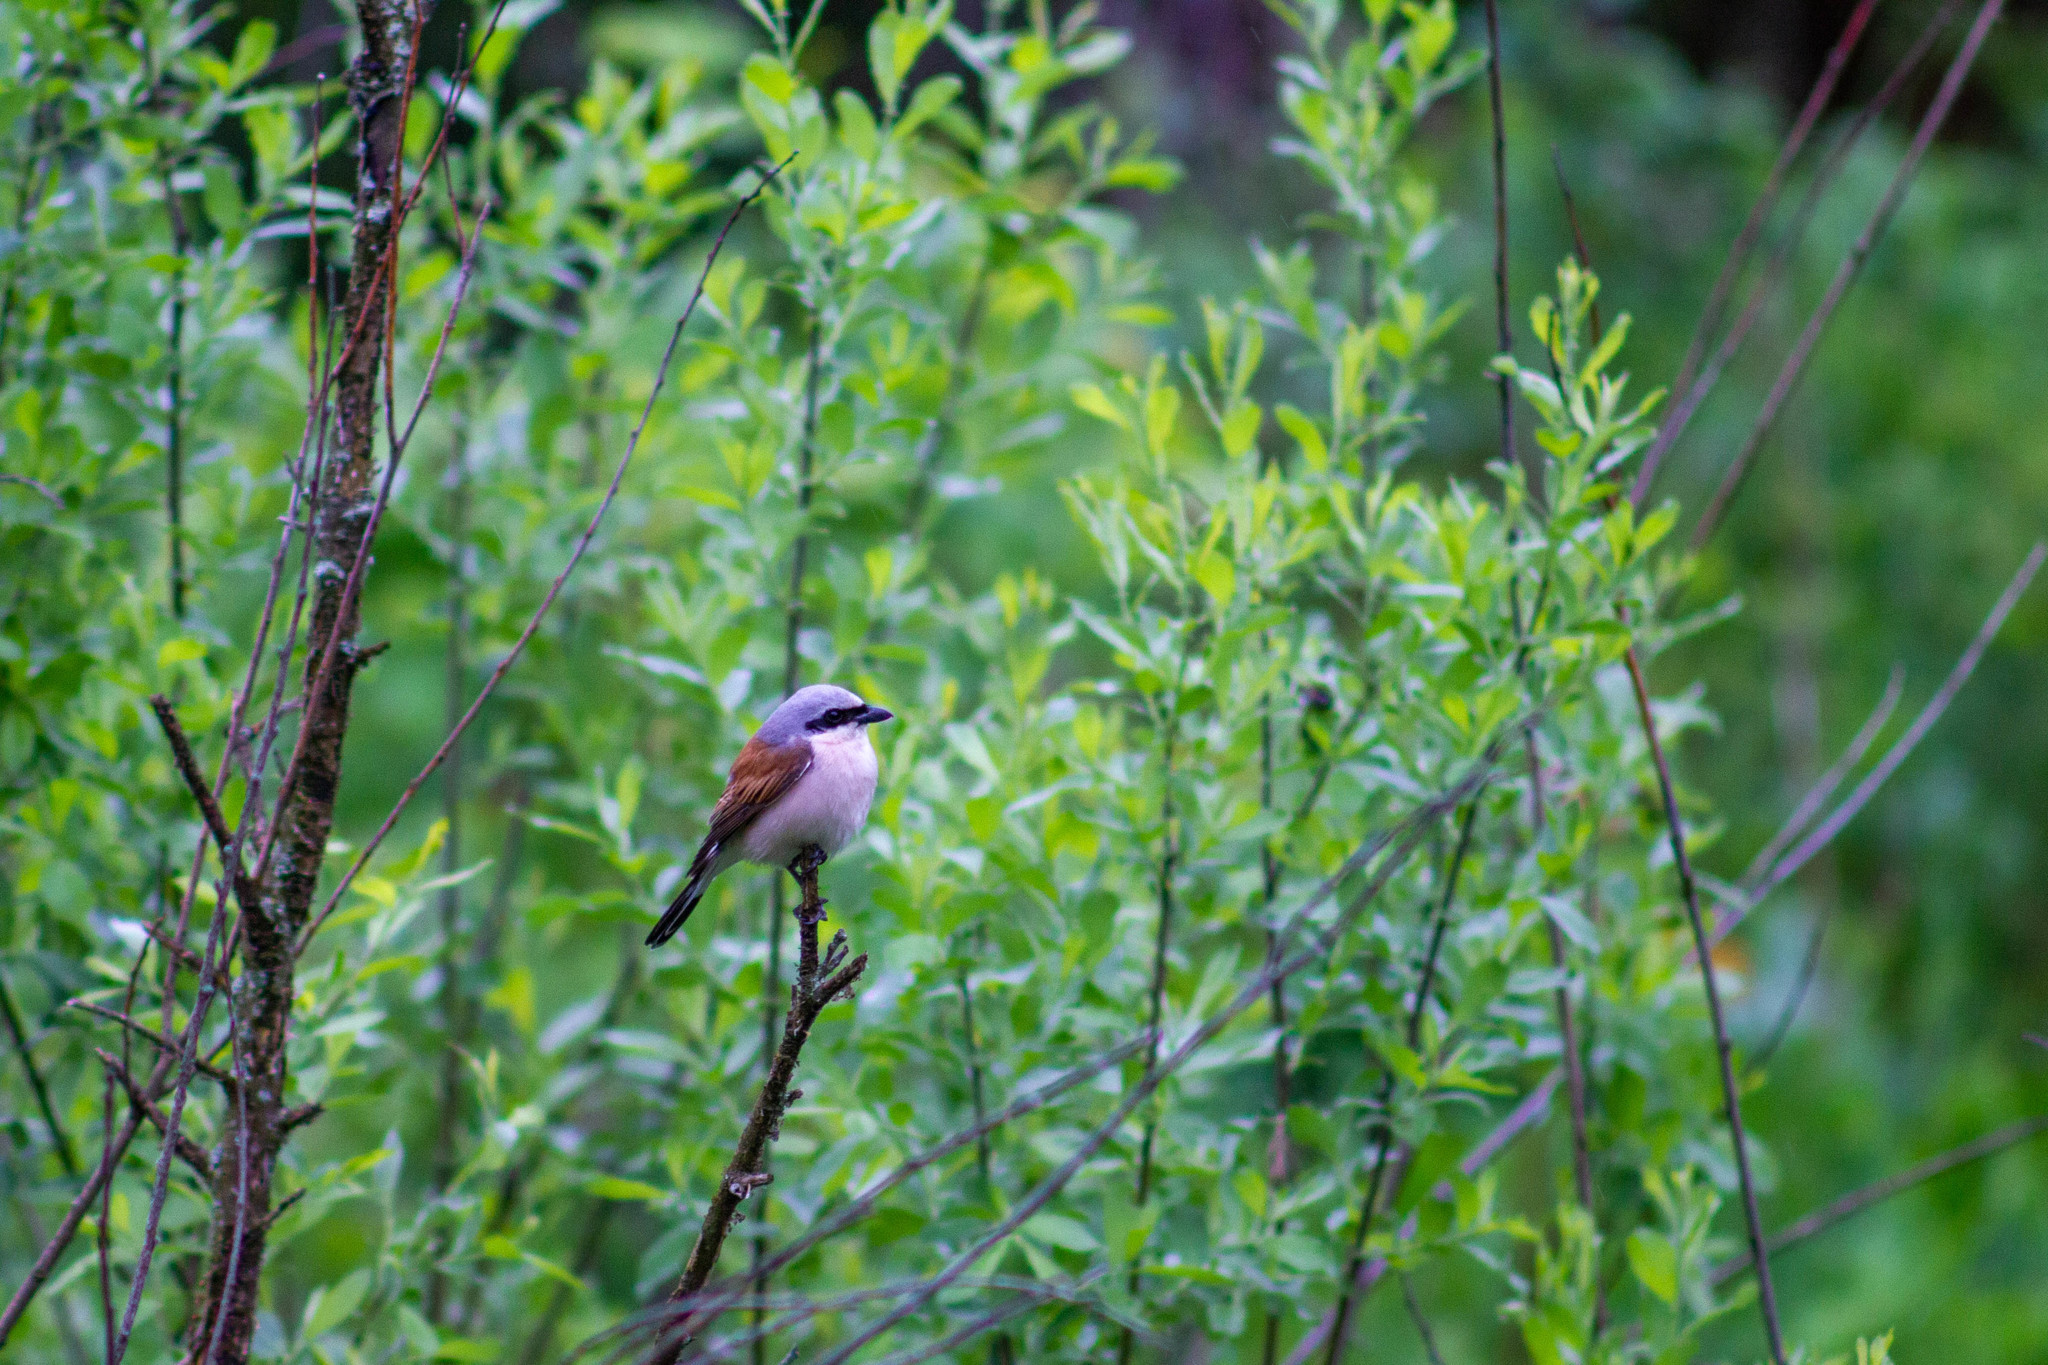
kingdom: Animalia
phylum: Chordata
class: Aves
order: Passeriformes
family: Laniidae
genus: Lanius
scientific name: Lanius collurio
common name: Red-backed shrike
